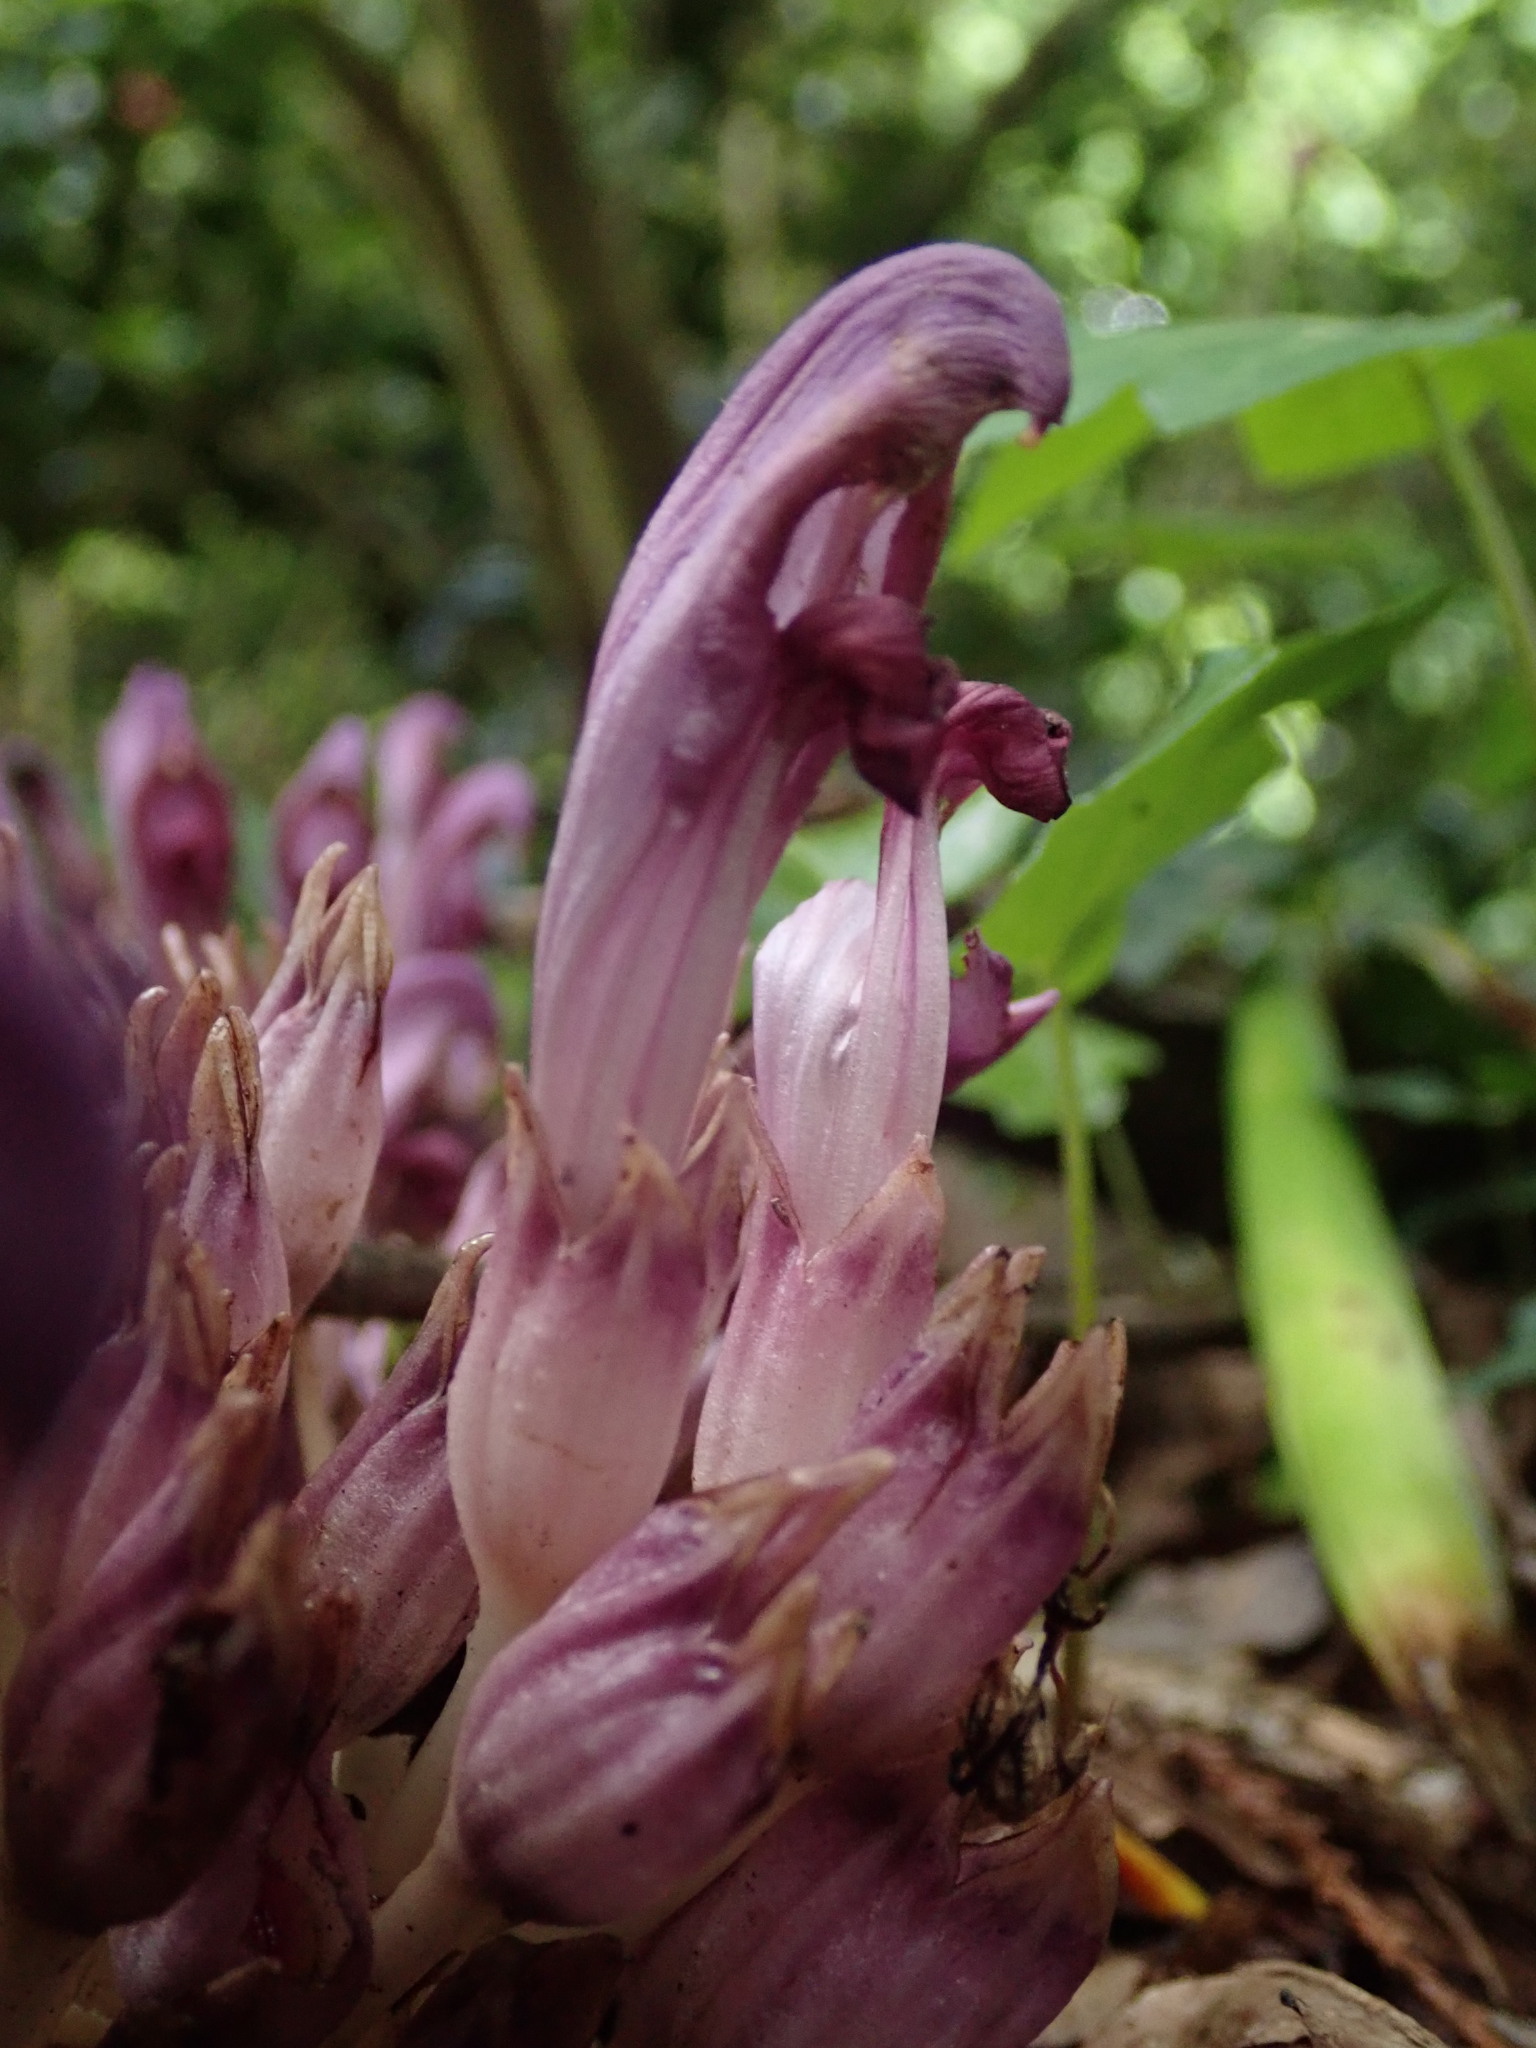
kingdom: Plantae
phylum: Tracheophyta
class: Magnoliopsida
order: Lamiales
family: Orobanchaceae
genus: Lathraea
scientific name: Lathraea clandestina
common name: Purple toothwort
